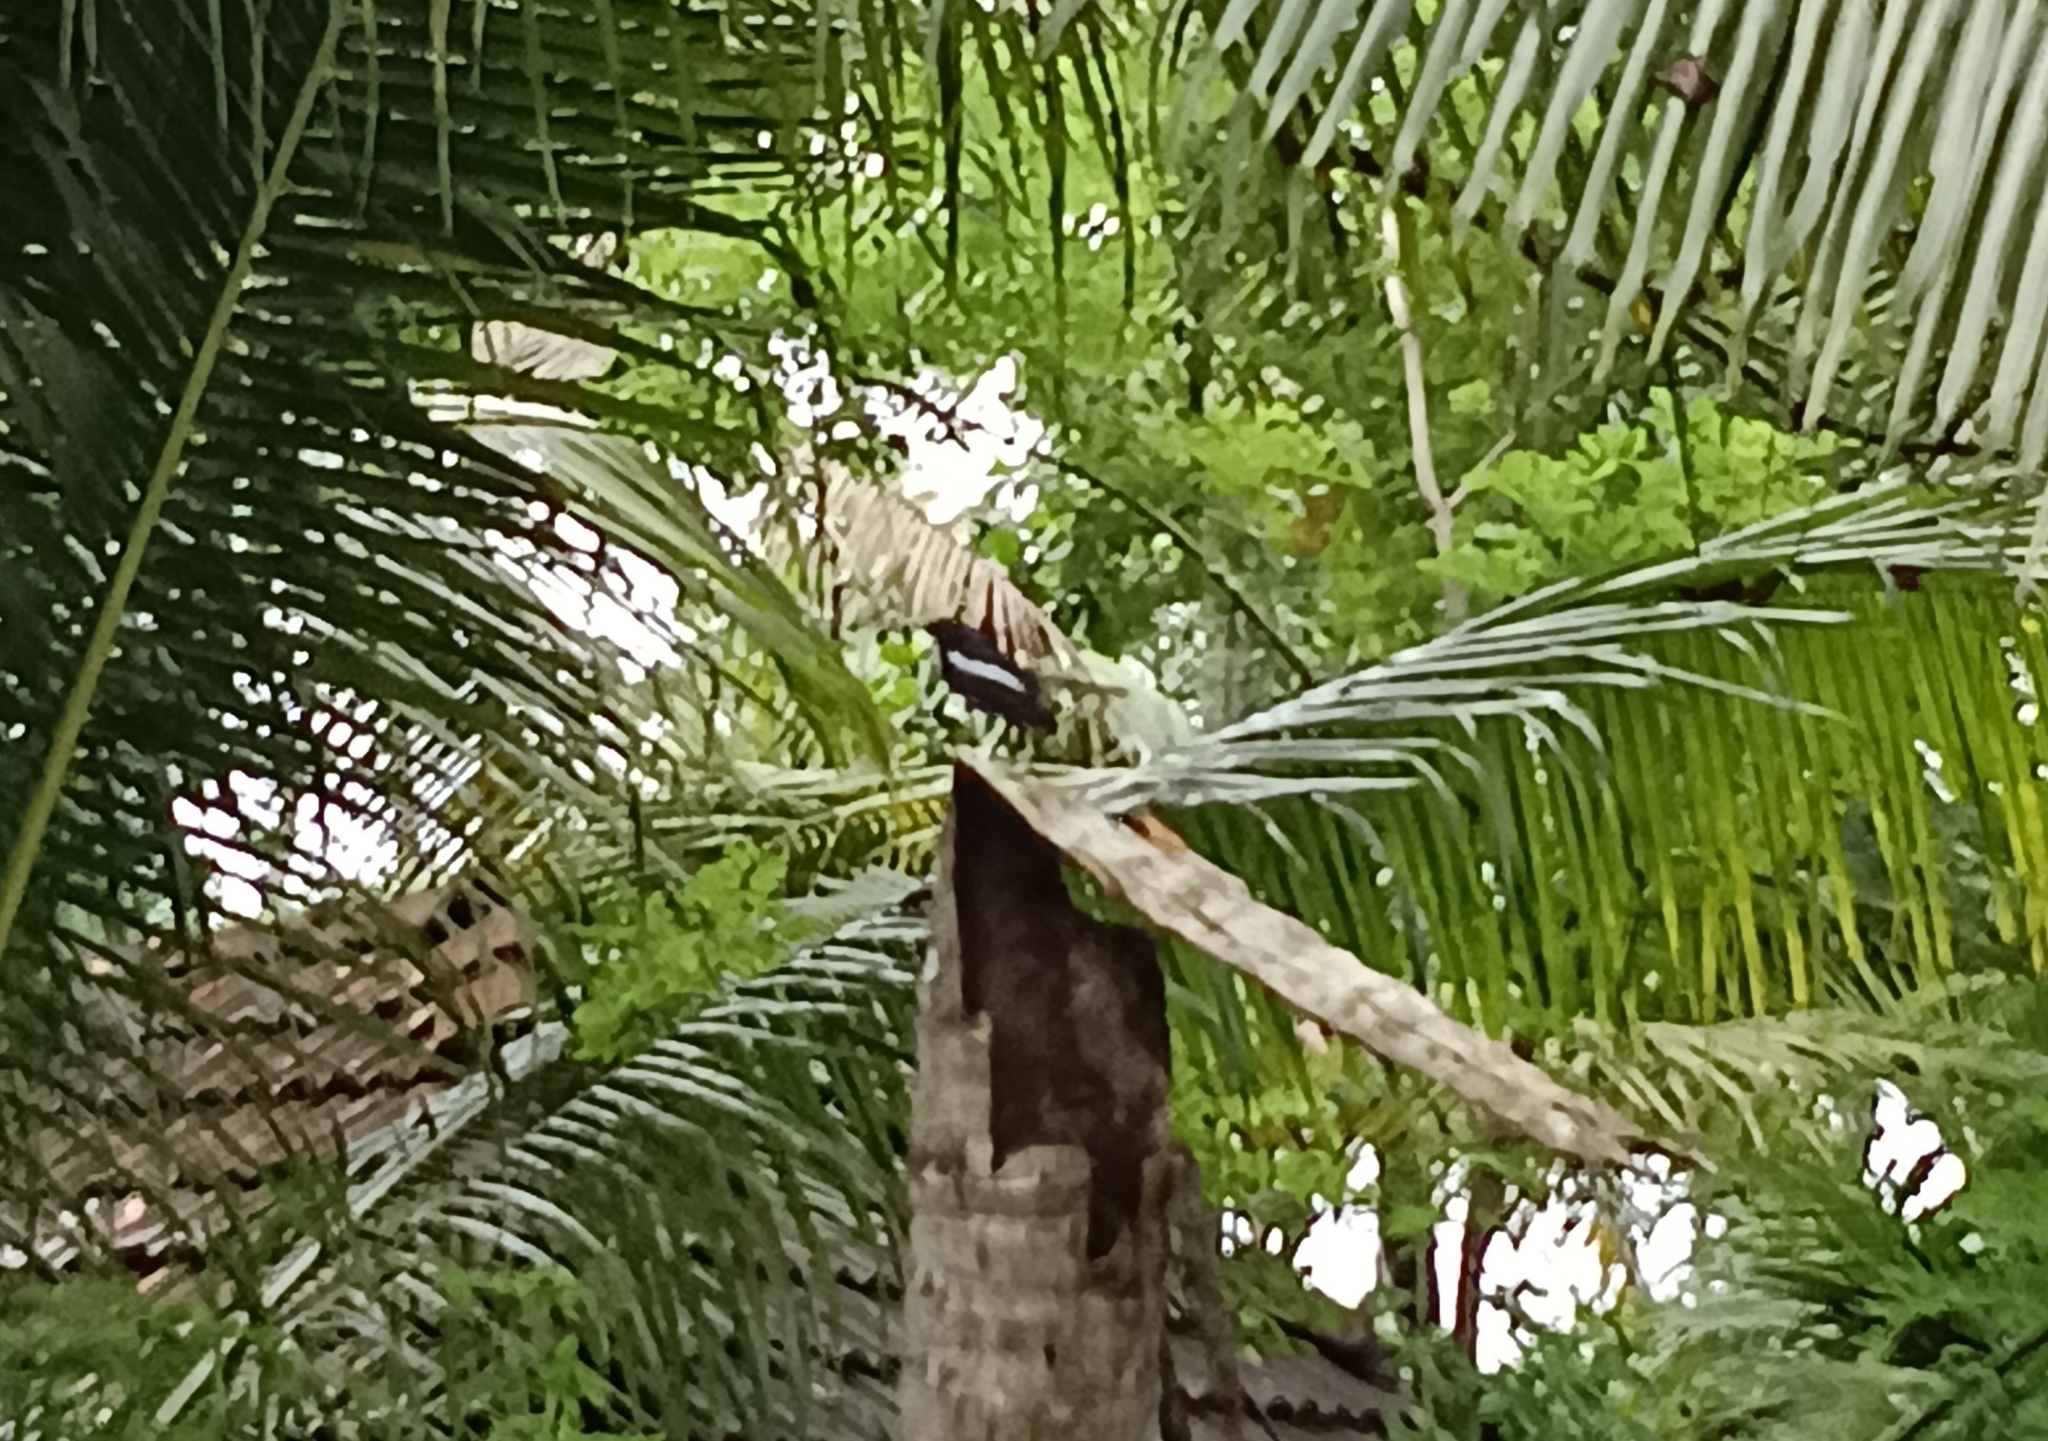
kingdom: Animalia
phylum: Chordata
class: Aves
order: Passeriformes
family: Muscicapidae
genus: Copsychus
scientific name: Copsychus saularis
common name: Oriental magpie-robin
